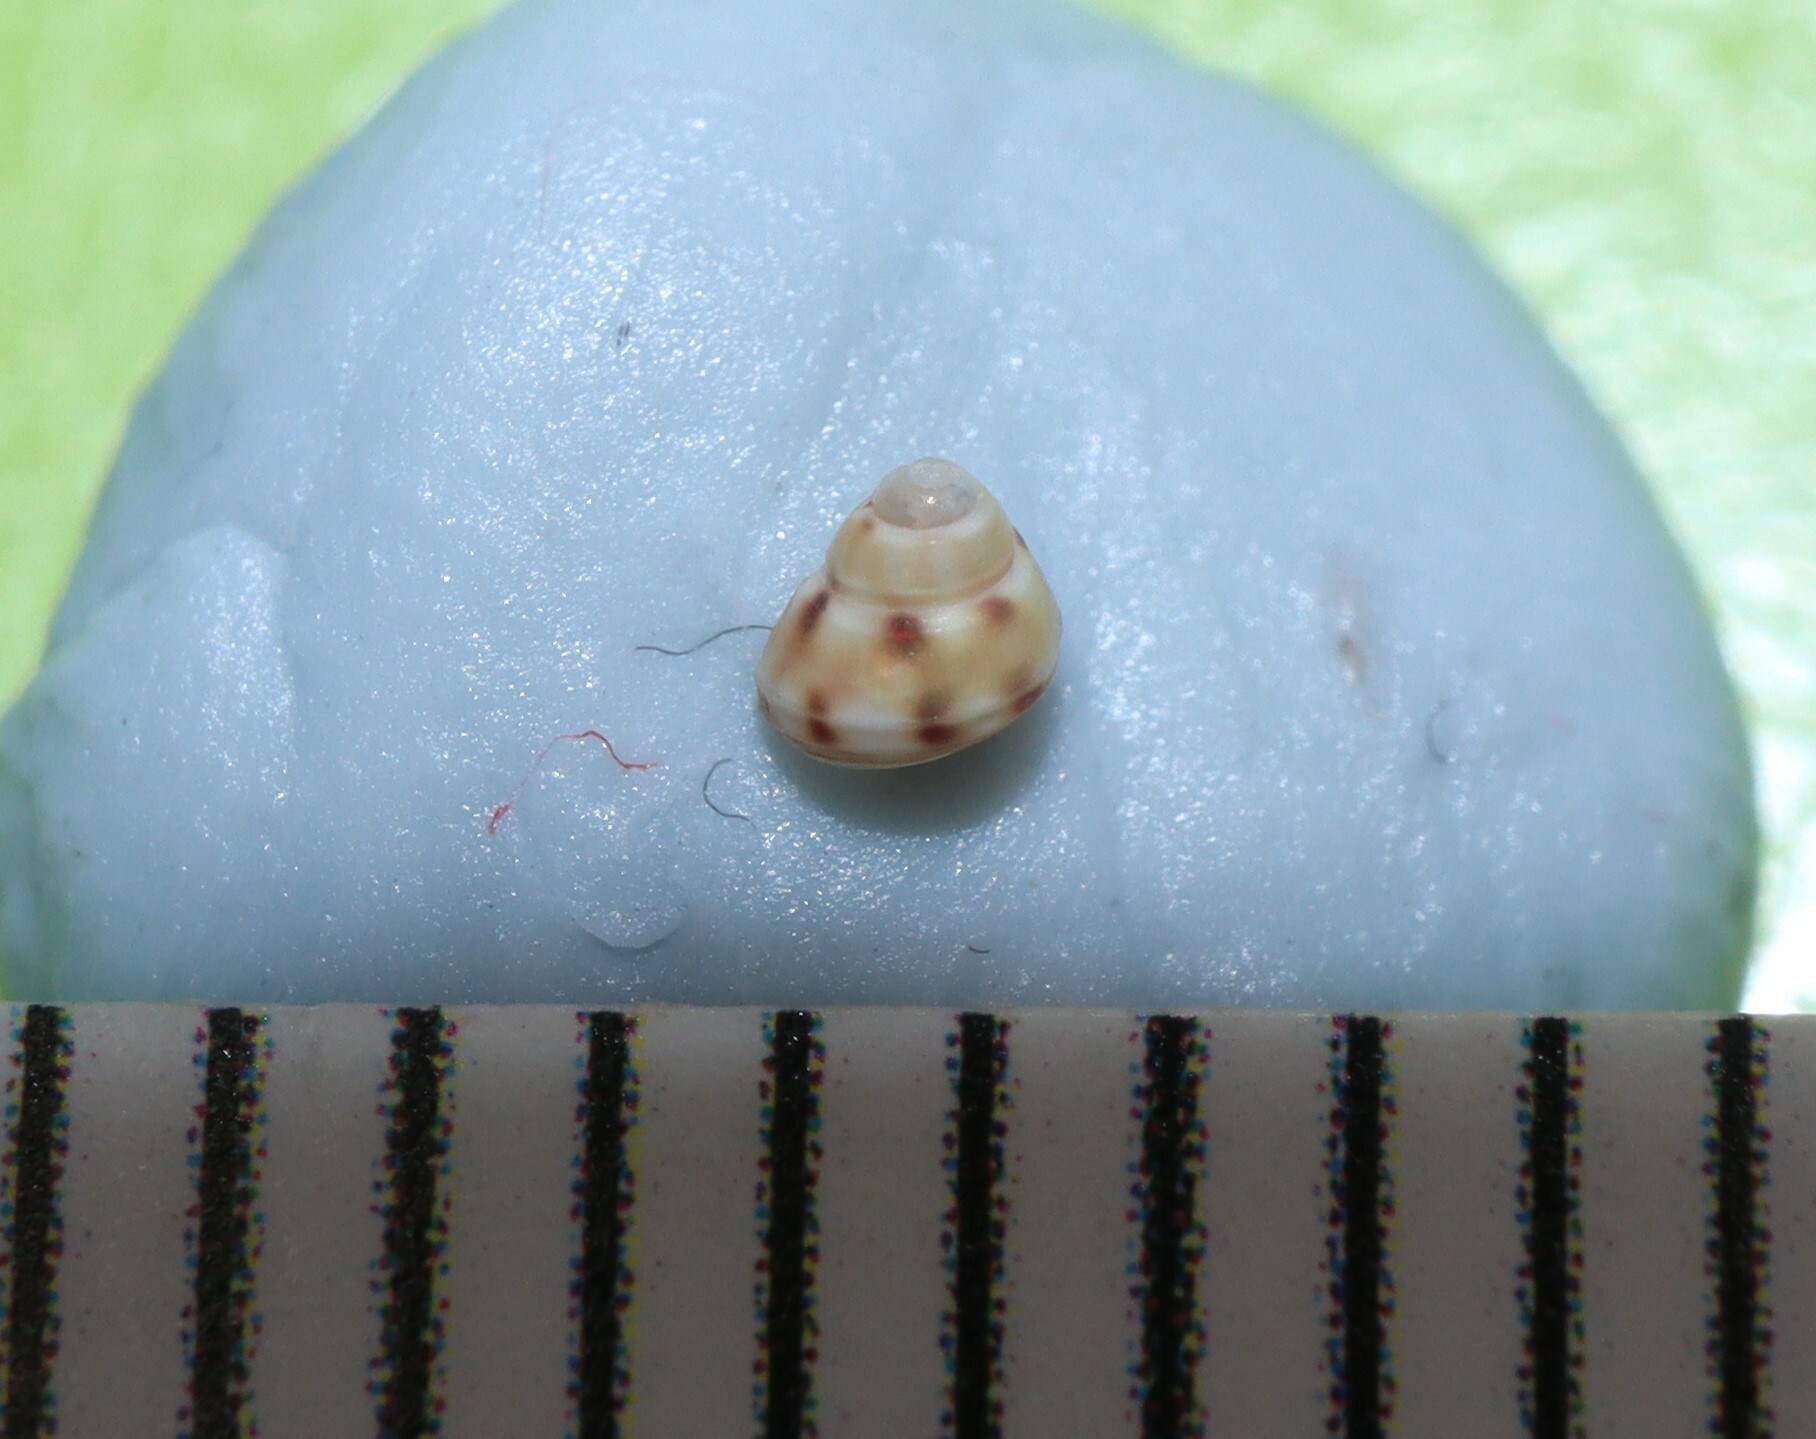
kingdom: Animalia
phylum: Mollusca
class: Gastropoda
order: Trochida
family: Trochidae
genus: Leiopyrga
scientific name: Leiopyrga cingulata
